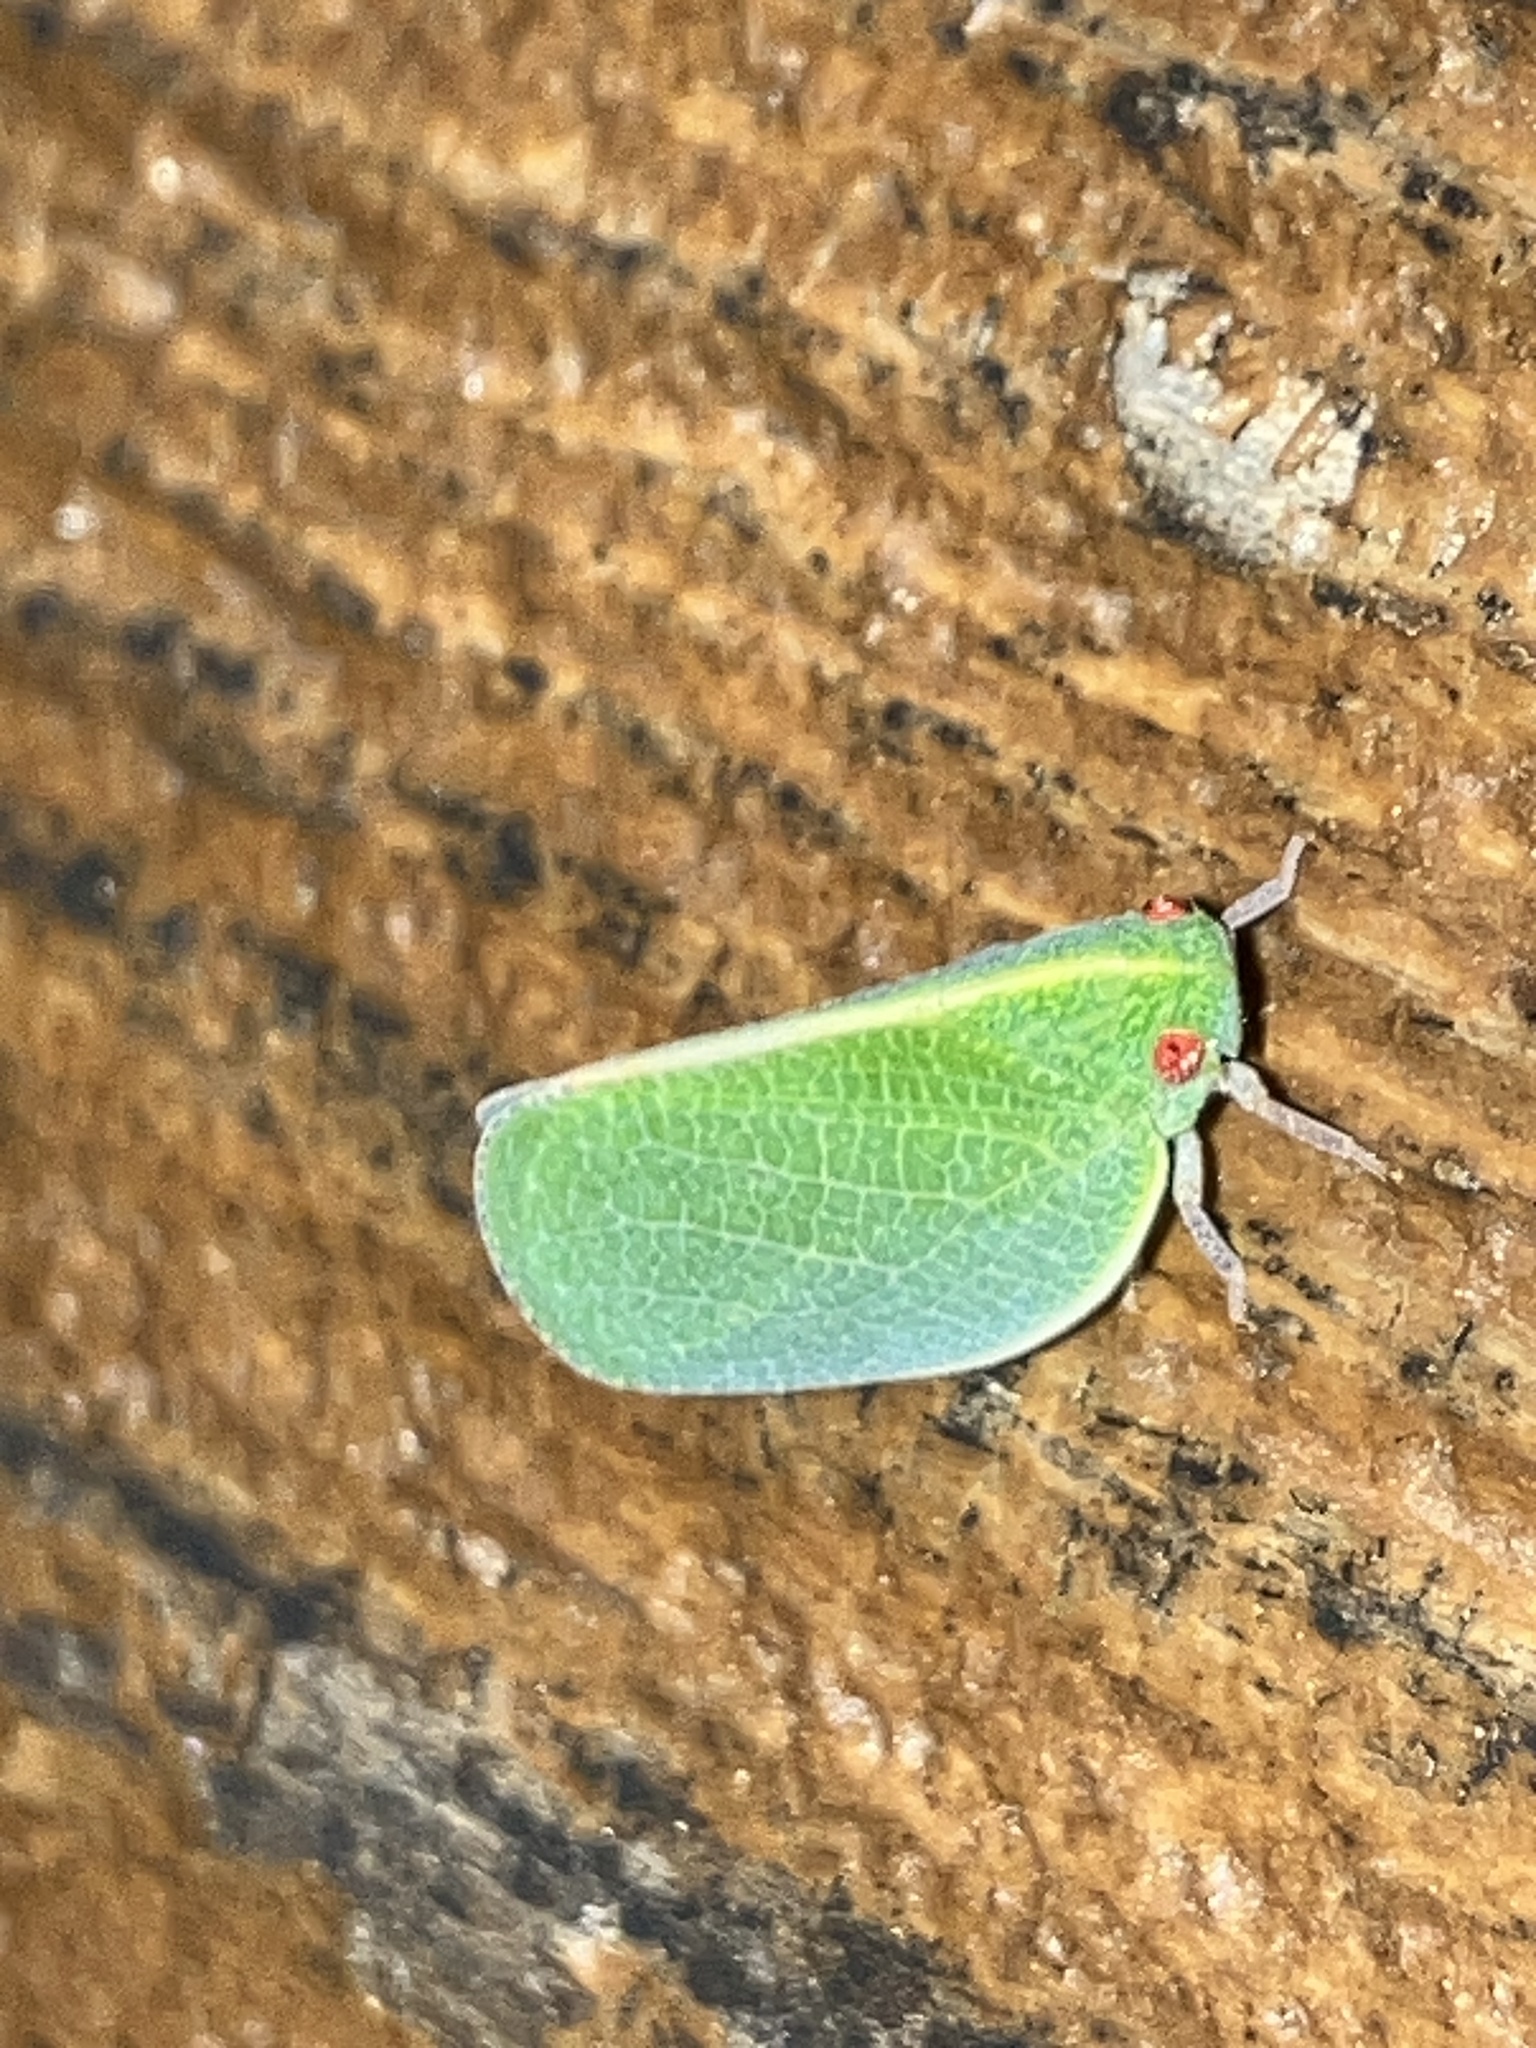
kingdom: Animalia
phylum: Arthropoda
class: Insecta
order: Hemiptera
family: Acanaloniidae
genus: Acanalonia
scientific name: Acanalonia servillei
